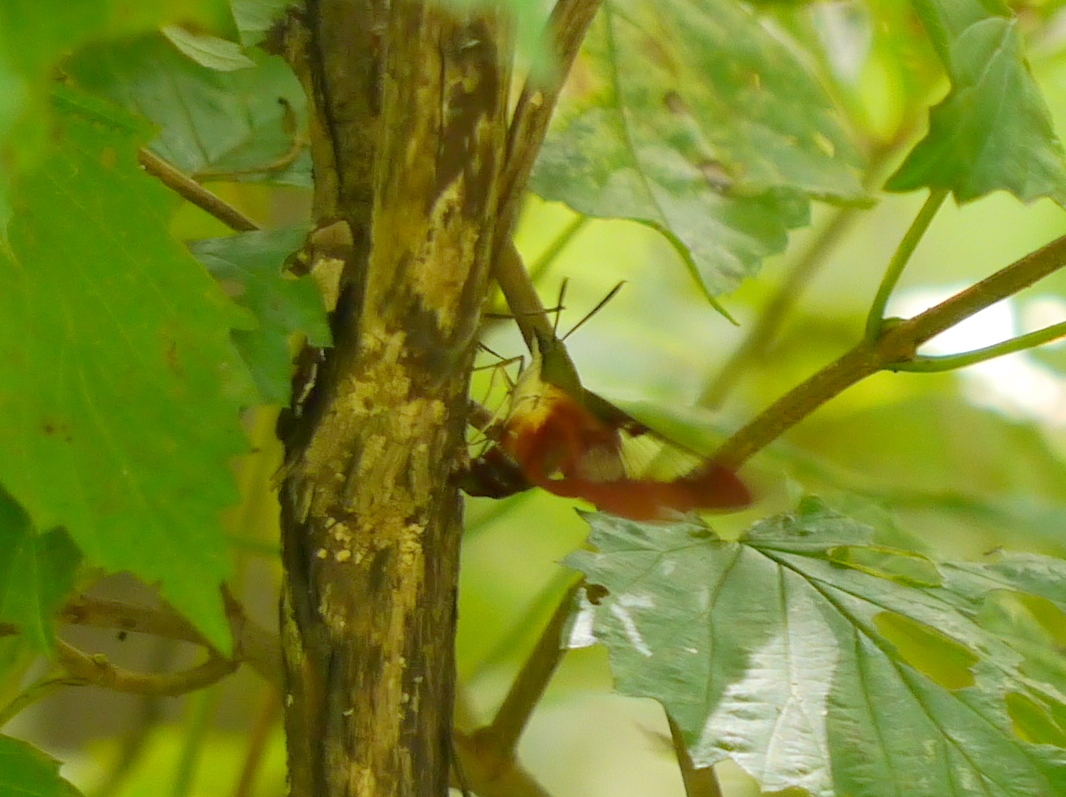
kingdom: Animalia
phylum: Arthropoda
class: Insecta
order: Lepidoptera
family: Sphingidae
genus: Hemaris
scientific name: Hemaris thysbe
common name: Common clear-wing
